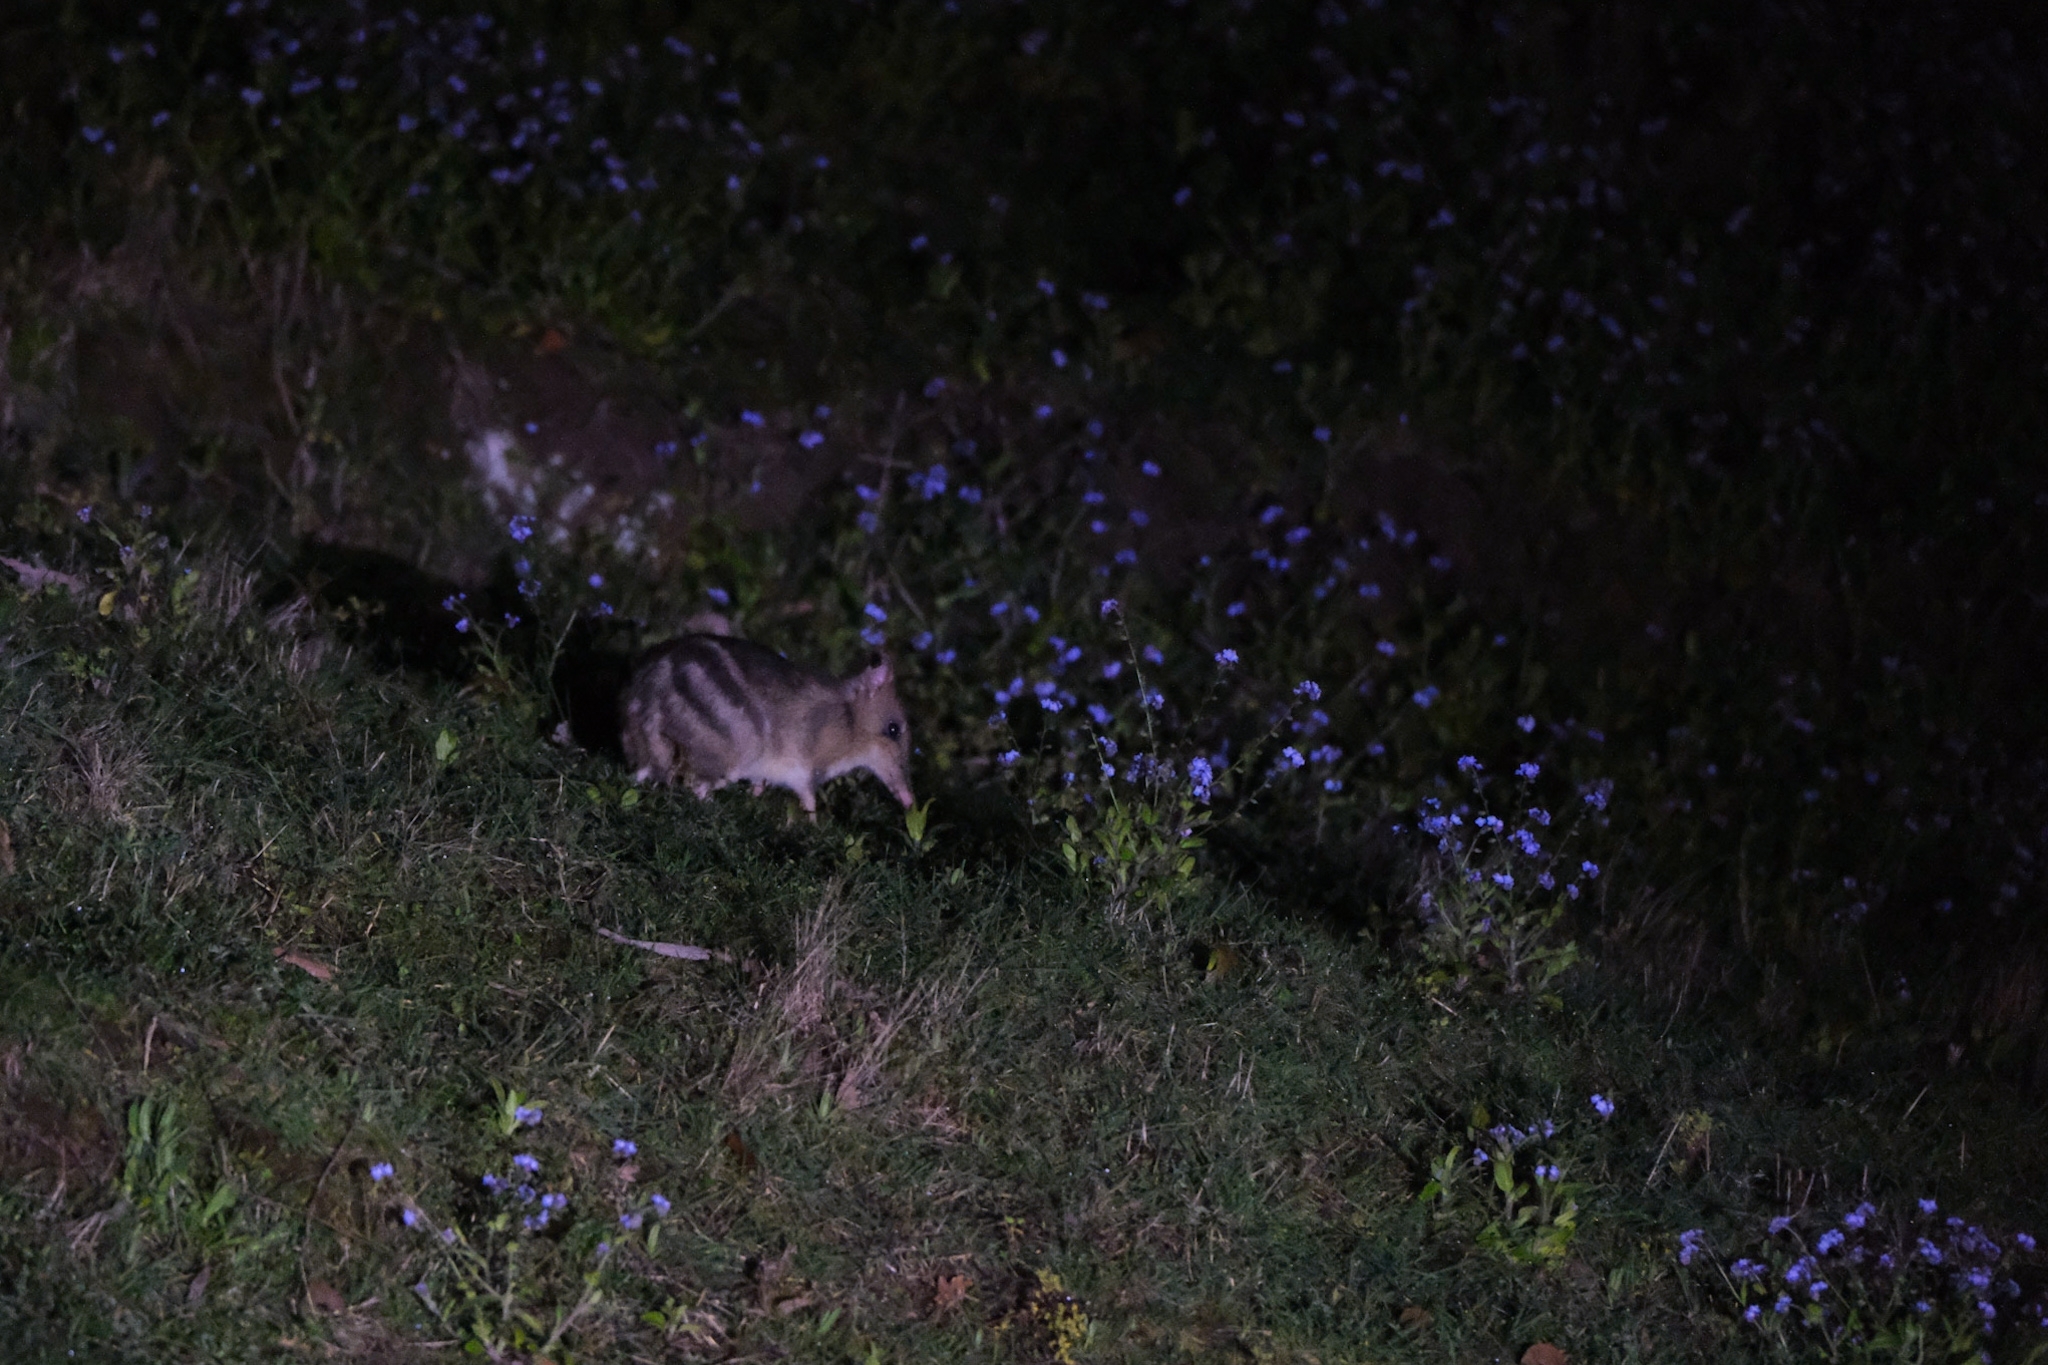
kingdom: Animalia
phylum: Chordata
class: Mammalia
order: Peramelemorphia
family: Peramelidae
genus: Perameles
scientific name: Perameles gunnii
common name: Eastern barred bandicoot
